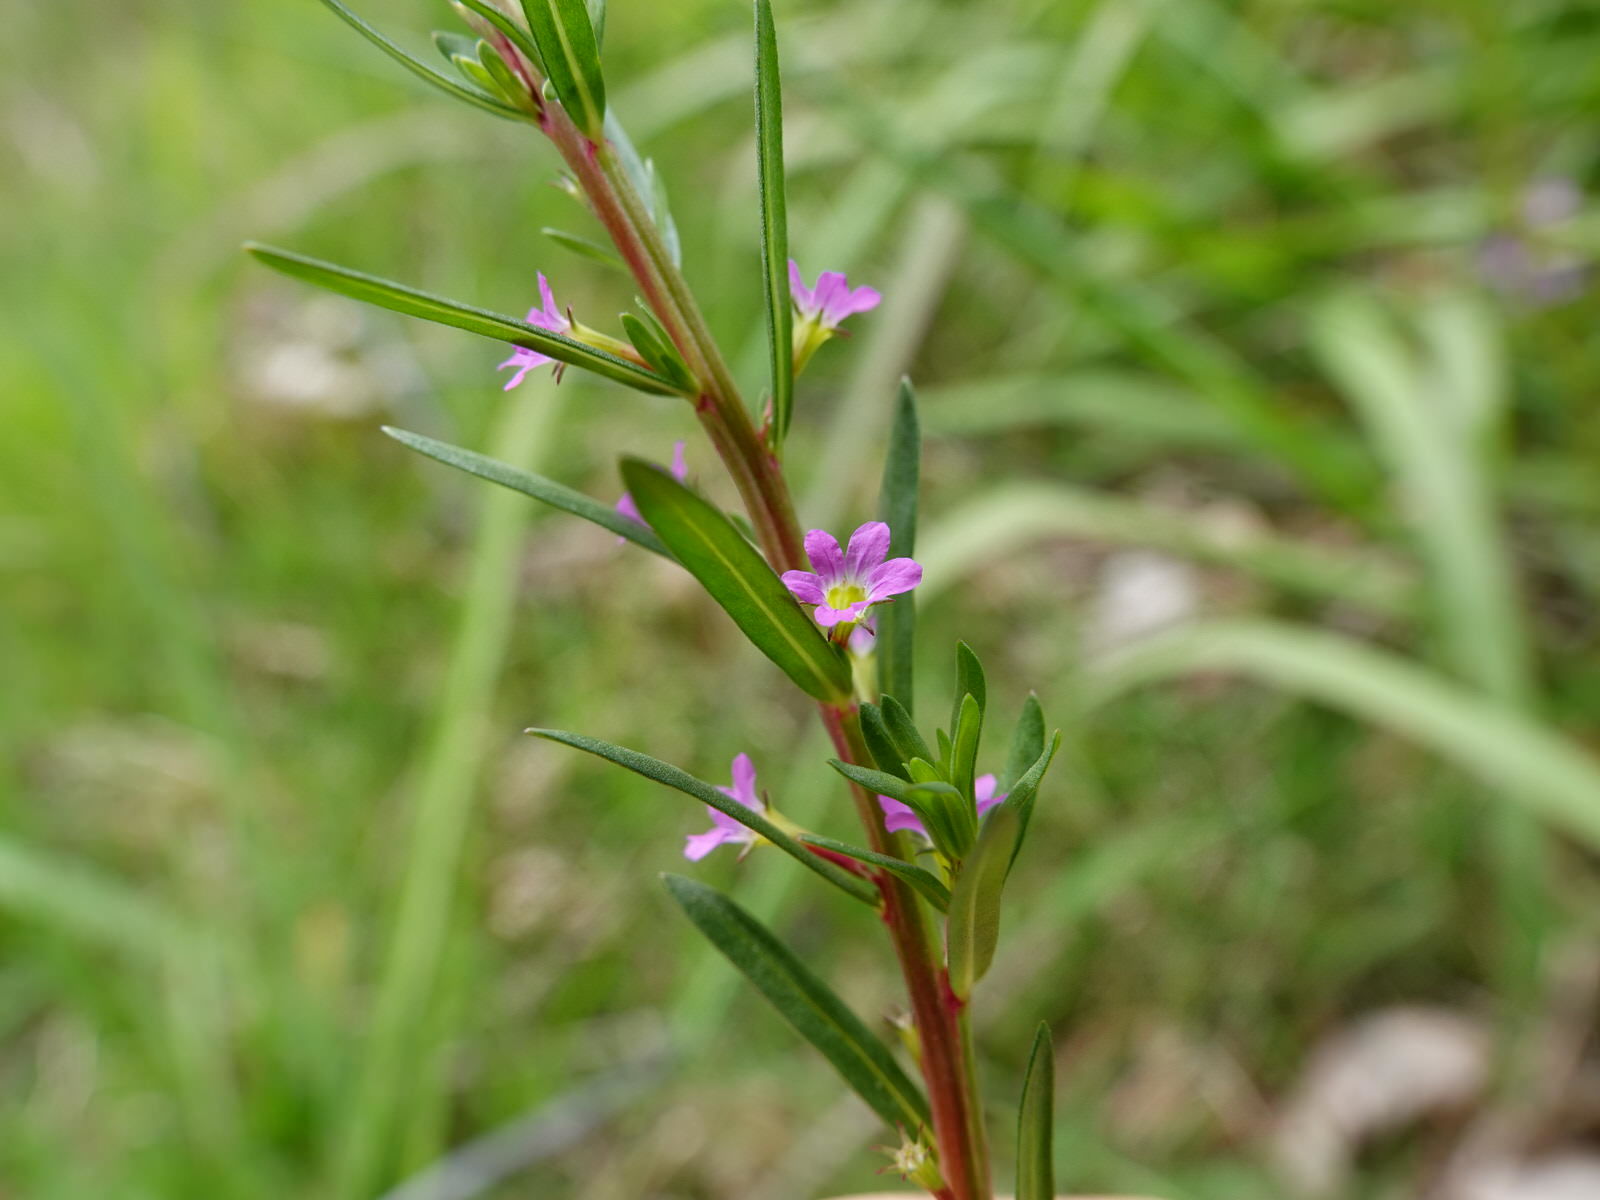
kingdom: Plantae
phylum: Tracheophyta
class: Magnoliopsida
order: Myrtales
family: Lythraceae
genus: Lythrum
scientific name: Lythrum hyssopifolia
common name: Grass-poly
